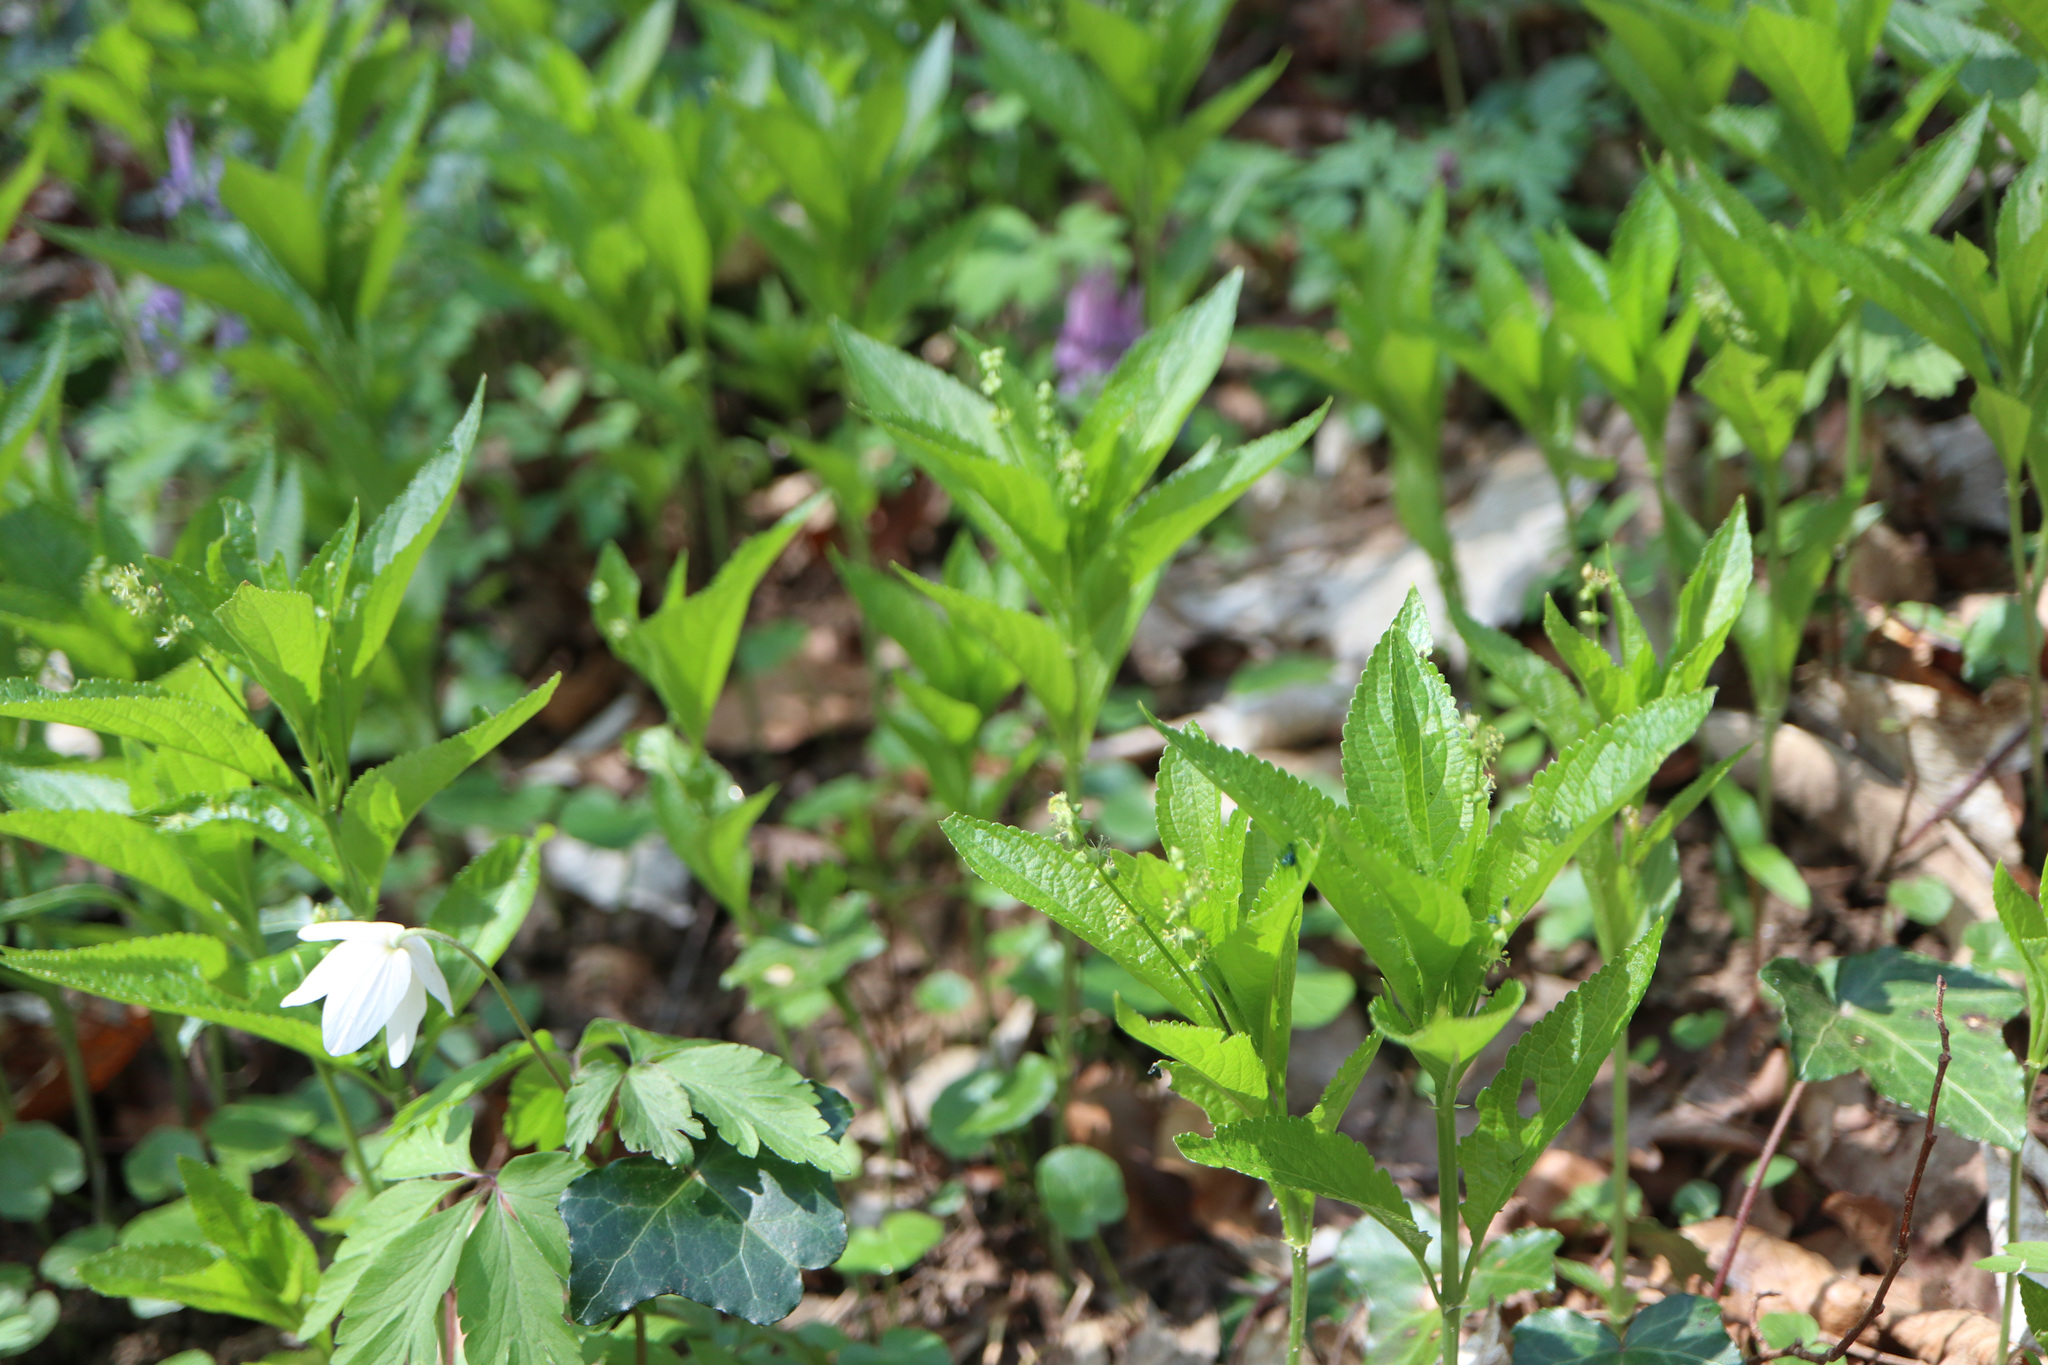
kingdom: Plantae
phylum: Tracheophyta
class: Magnoliopsida
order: Malpighiales
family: Euphorbiaceae
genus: Mercurialis
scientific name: Mercurialis perennis
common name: Dog mercury
